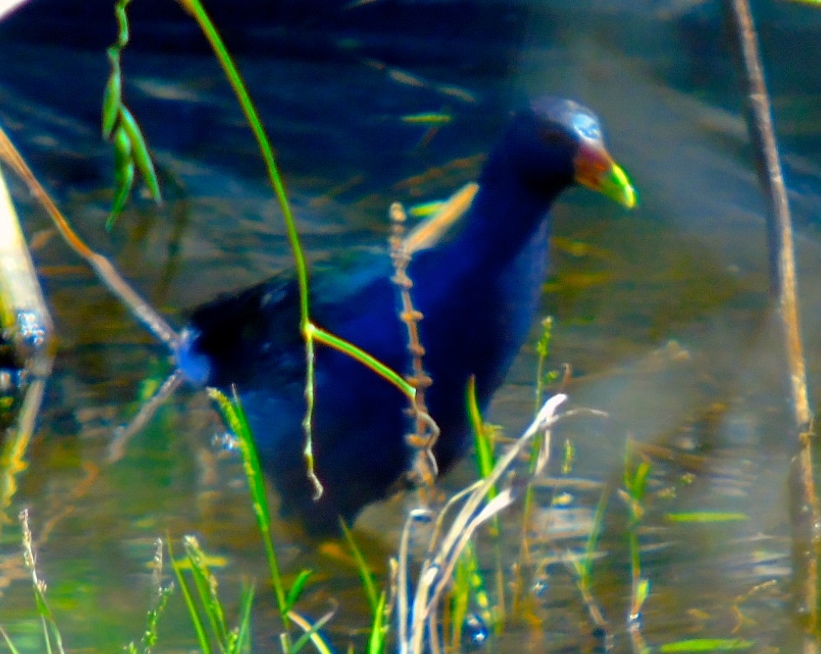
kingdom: Animalia
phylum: Chordata
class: Aves
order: Gruiformes
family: Rallidae
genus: Porphyrio
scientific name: Porphyrio martinica
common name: Purple gallinule
